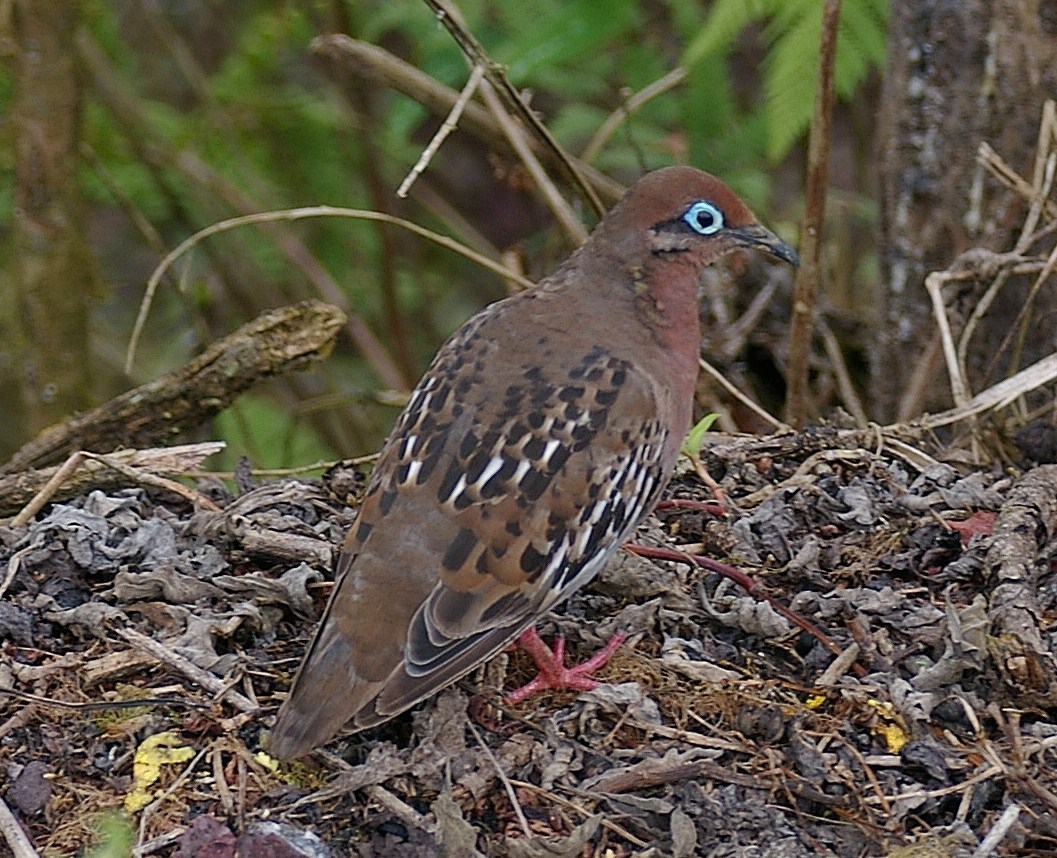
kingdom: Animalia
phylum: Chordata
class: Aves
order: Columbiformes
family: Columbidae
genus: Zenaida
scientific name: Zenaida galapagoensis
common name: Galapagos dove
